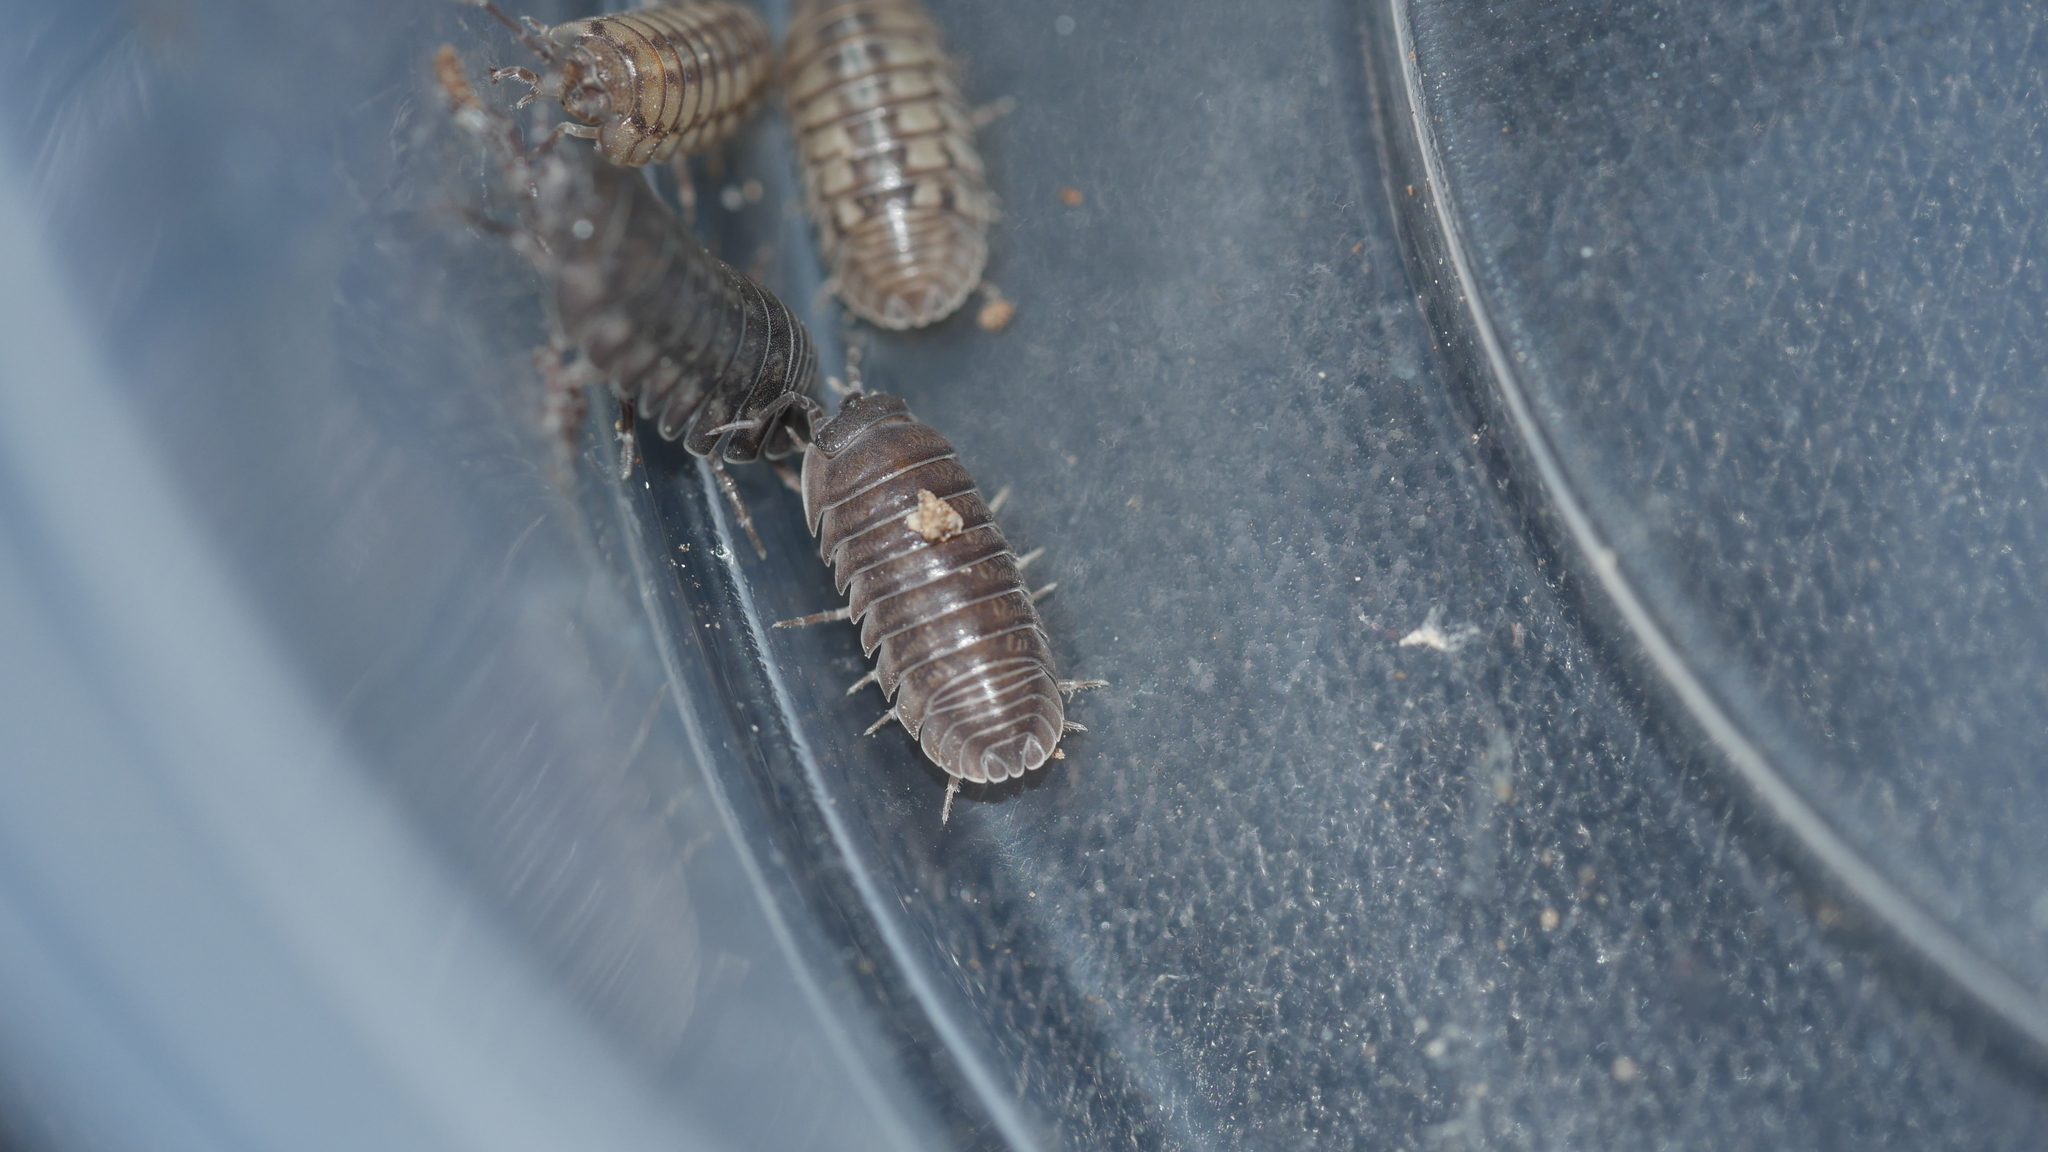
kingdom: Animalia
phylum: Arthropoda
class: Malacostraca
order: Isopoda
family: Armadillidiidae
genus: Armadillidium
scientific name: Armadillidium nasatum
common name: Isopod
